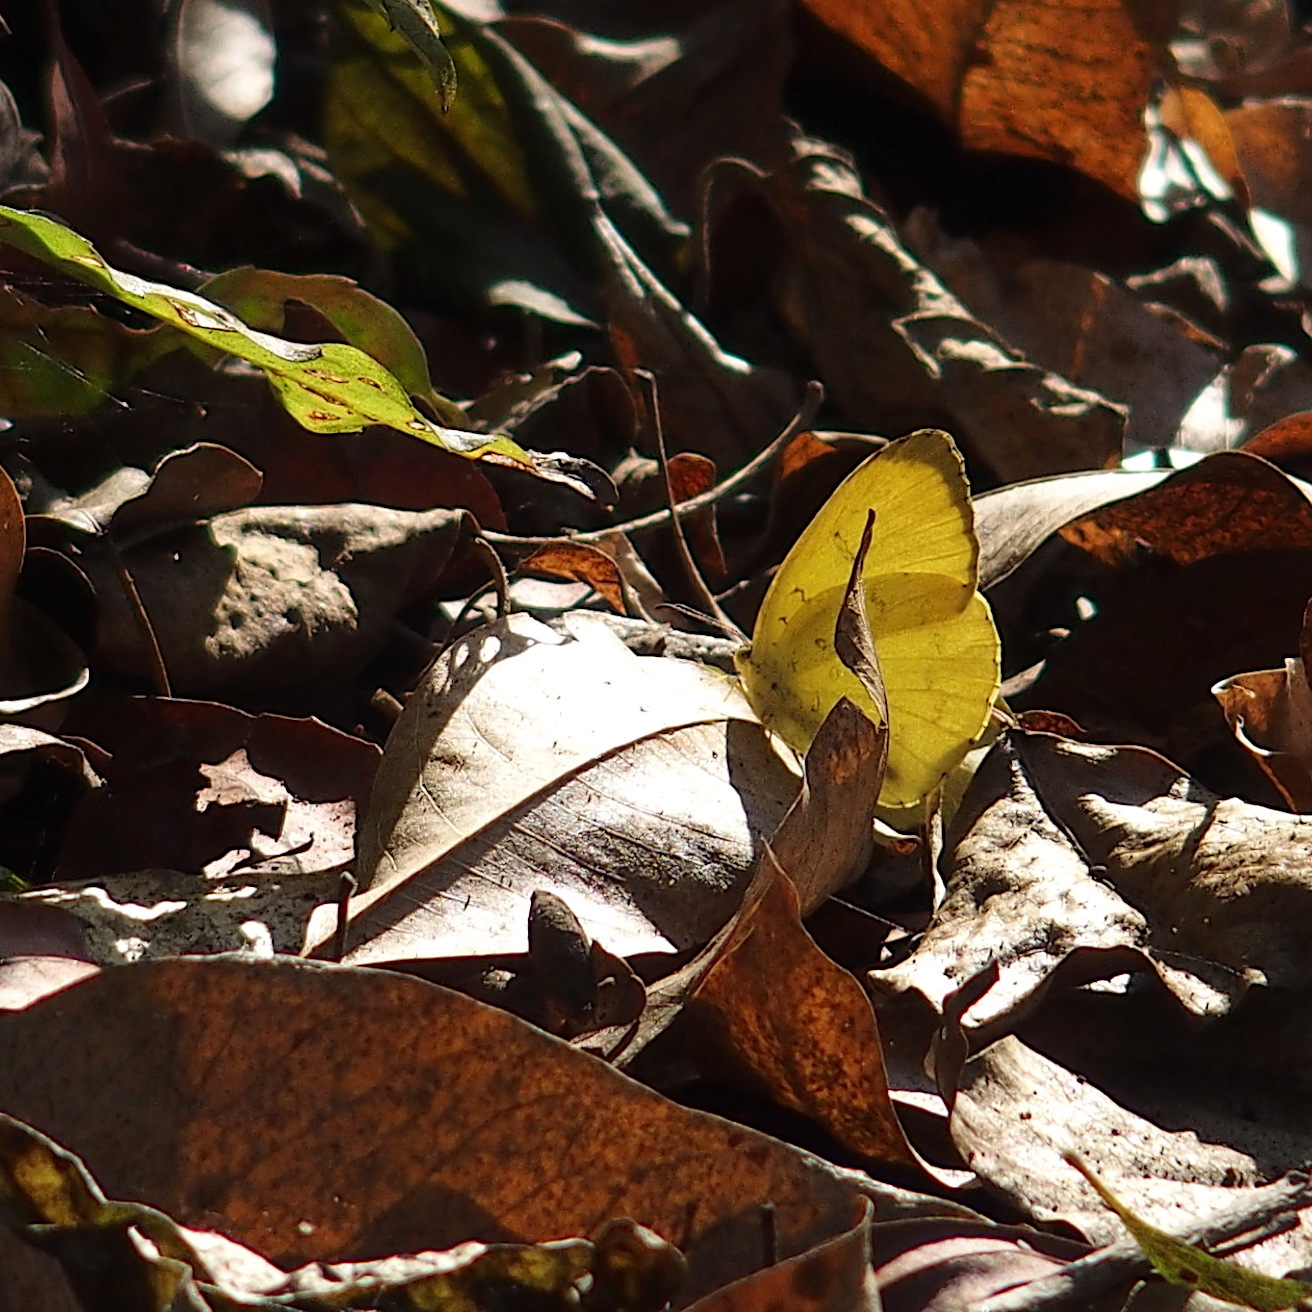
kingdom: Animalia
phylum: Arthropoda
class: Insecta
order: Lepidoptera
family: Pieridae
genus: Eurema
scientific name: Eurema blanda
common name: Three-spot grass yellow
